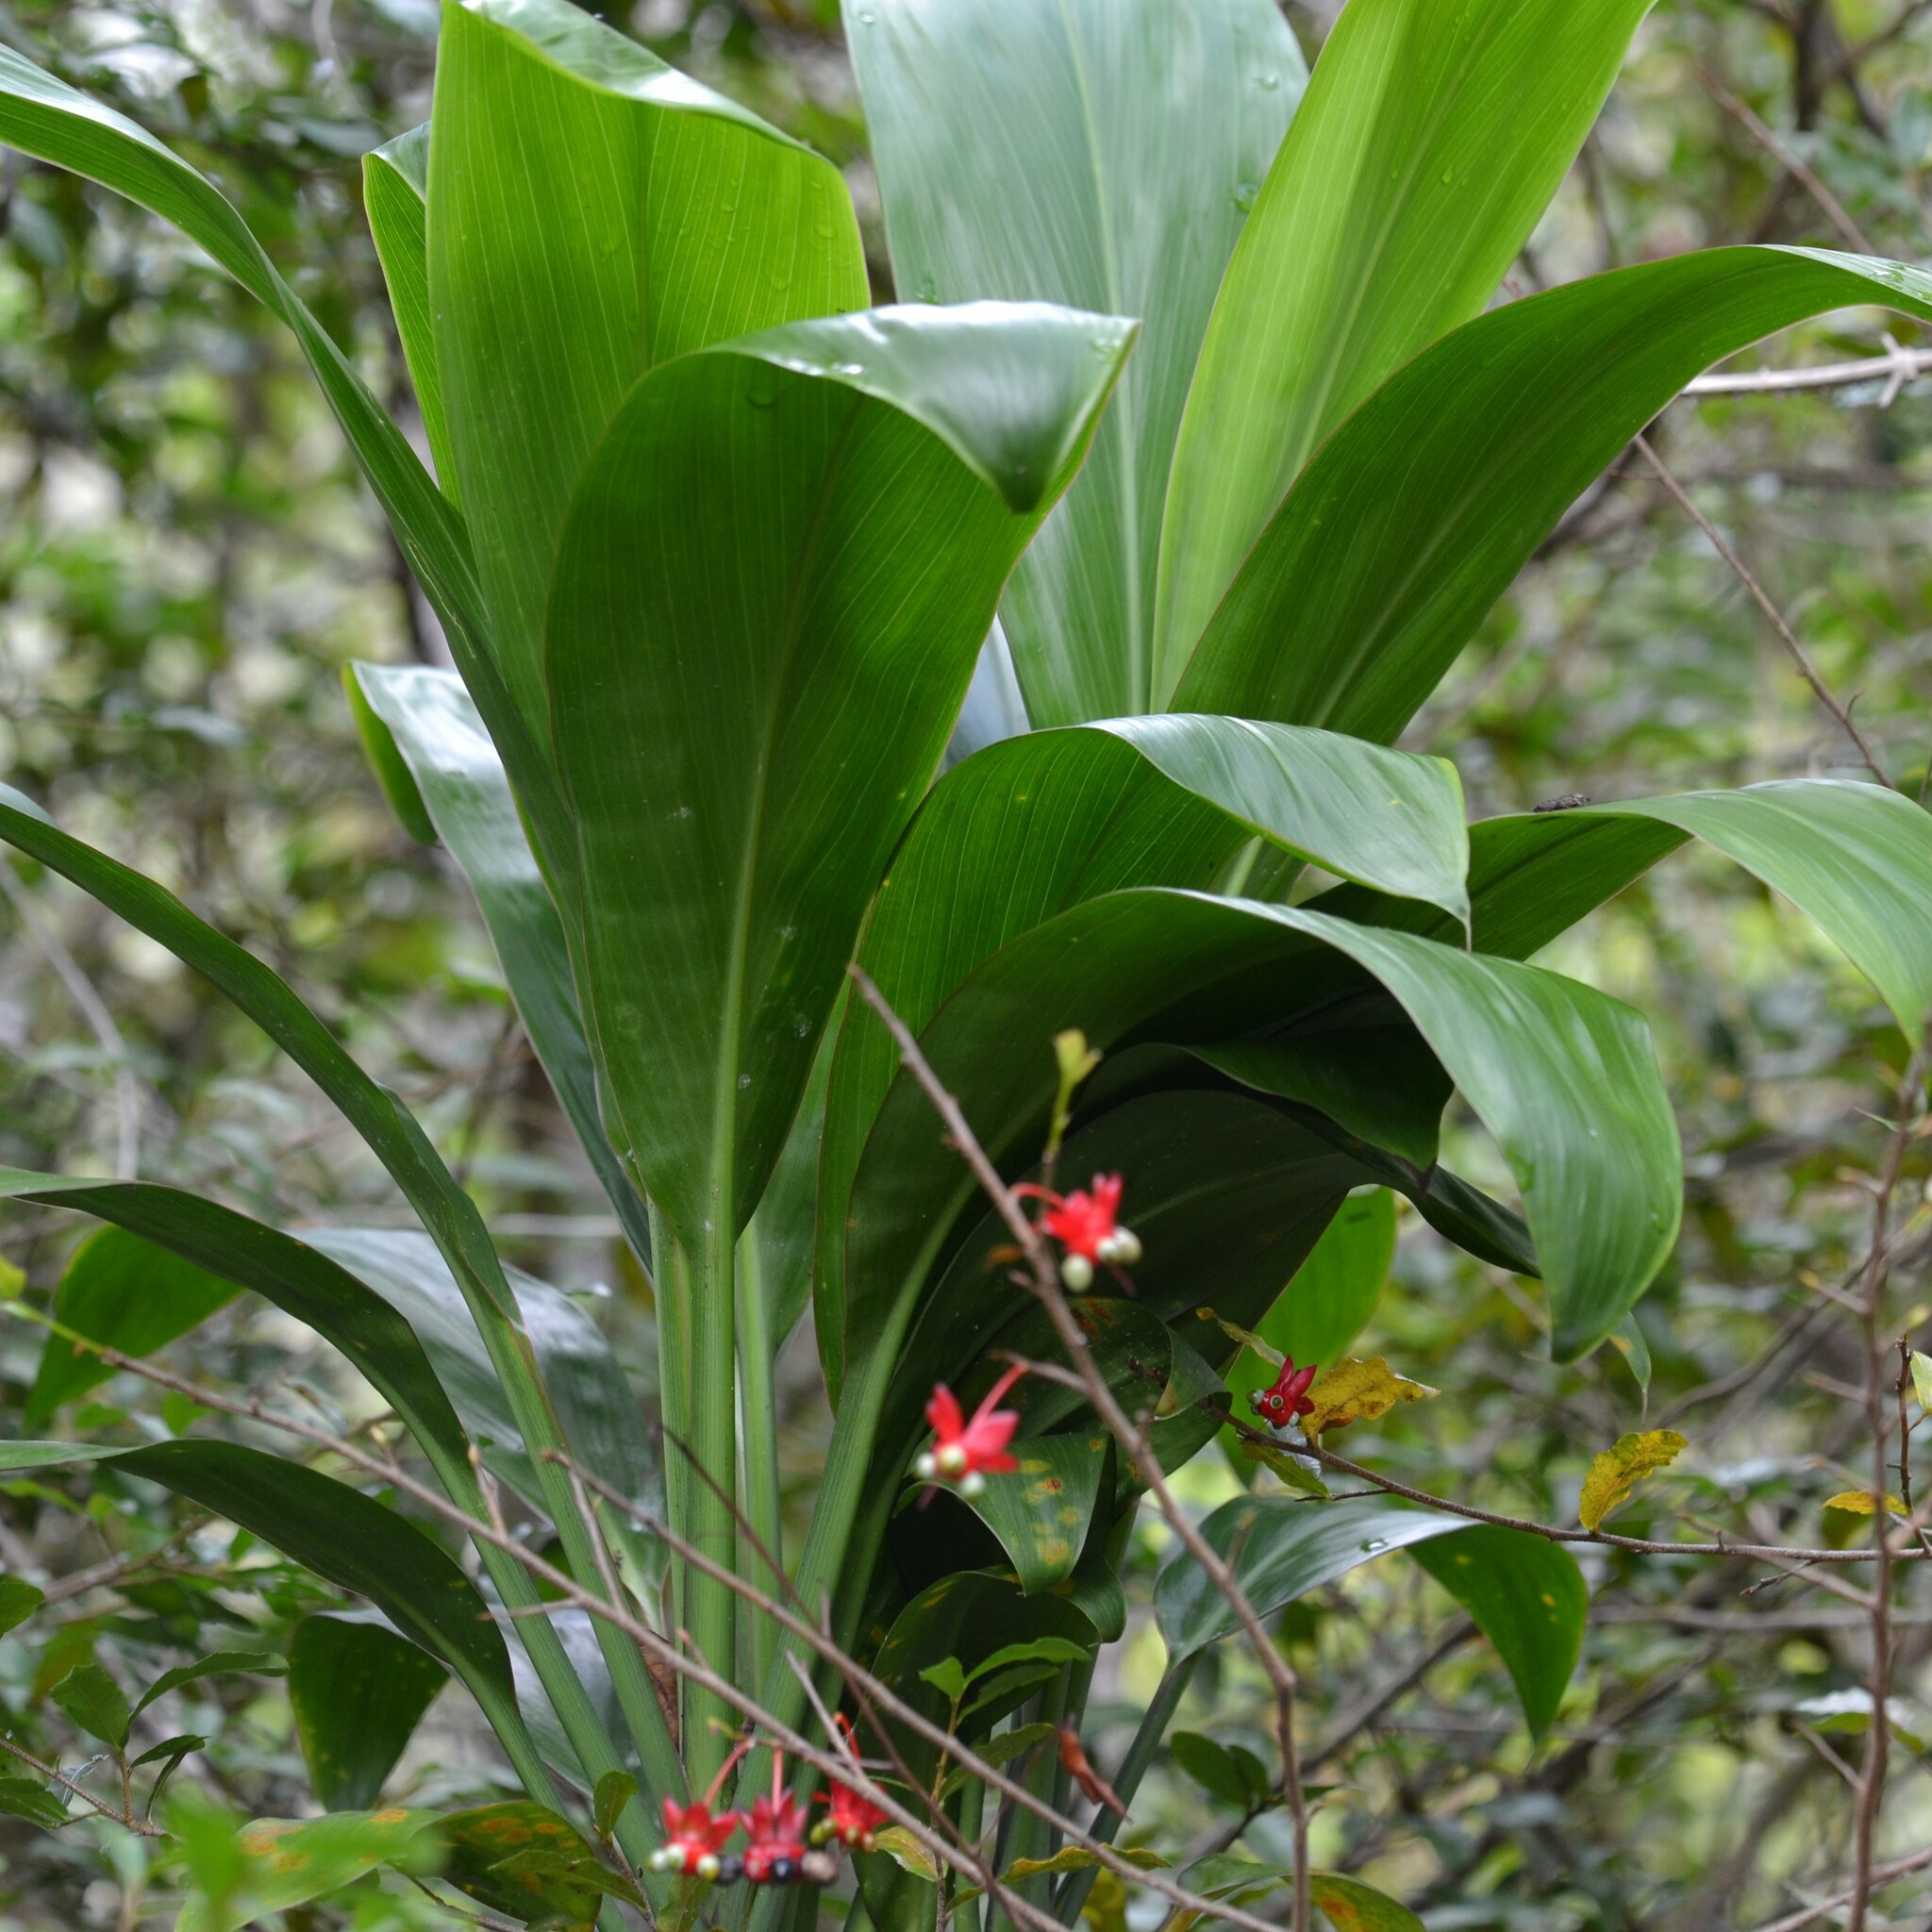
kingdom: Plantae
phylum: Tracheophyta
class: Liliopsida
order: Asparagales
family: Asparagaceae
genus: Cordyline
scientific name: Cordyline fruticosa
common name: Good-luck-plant
